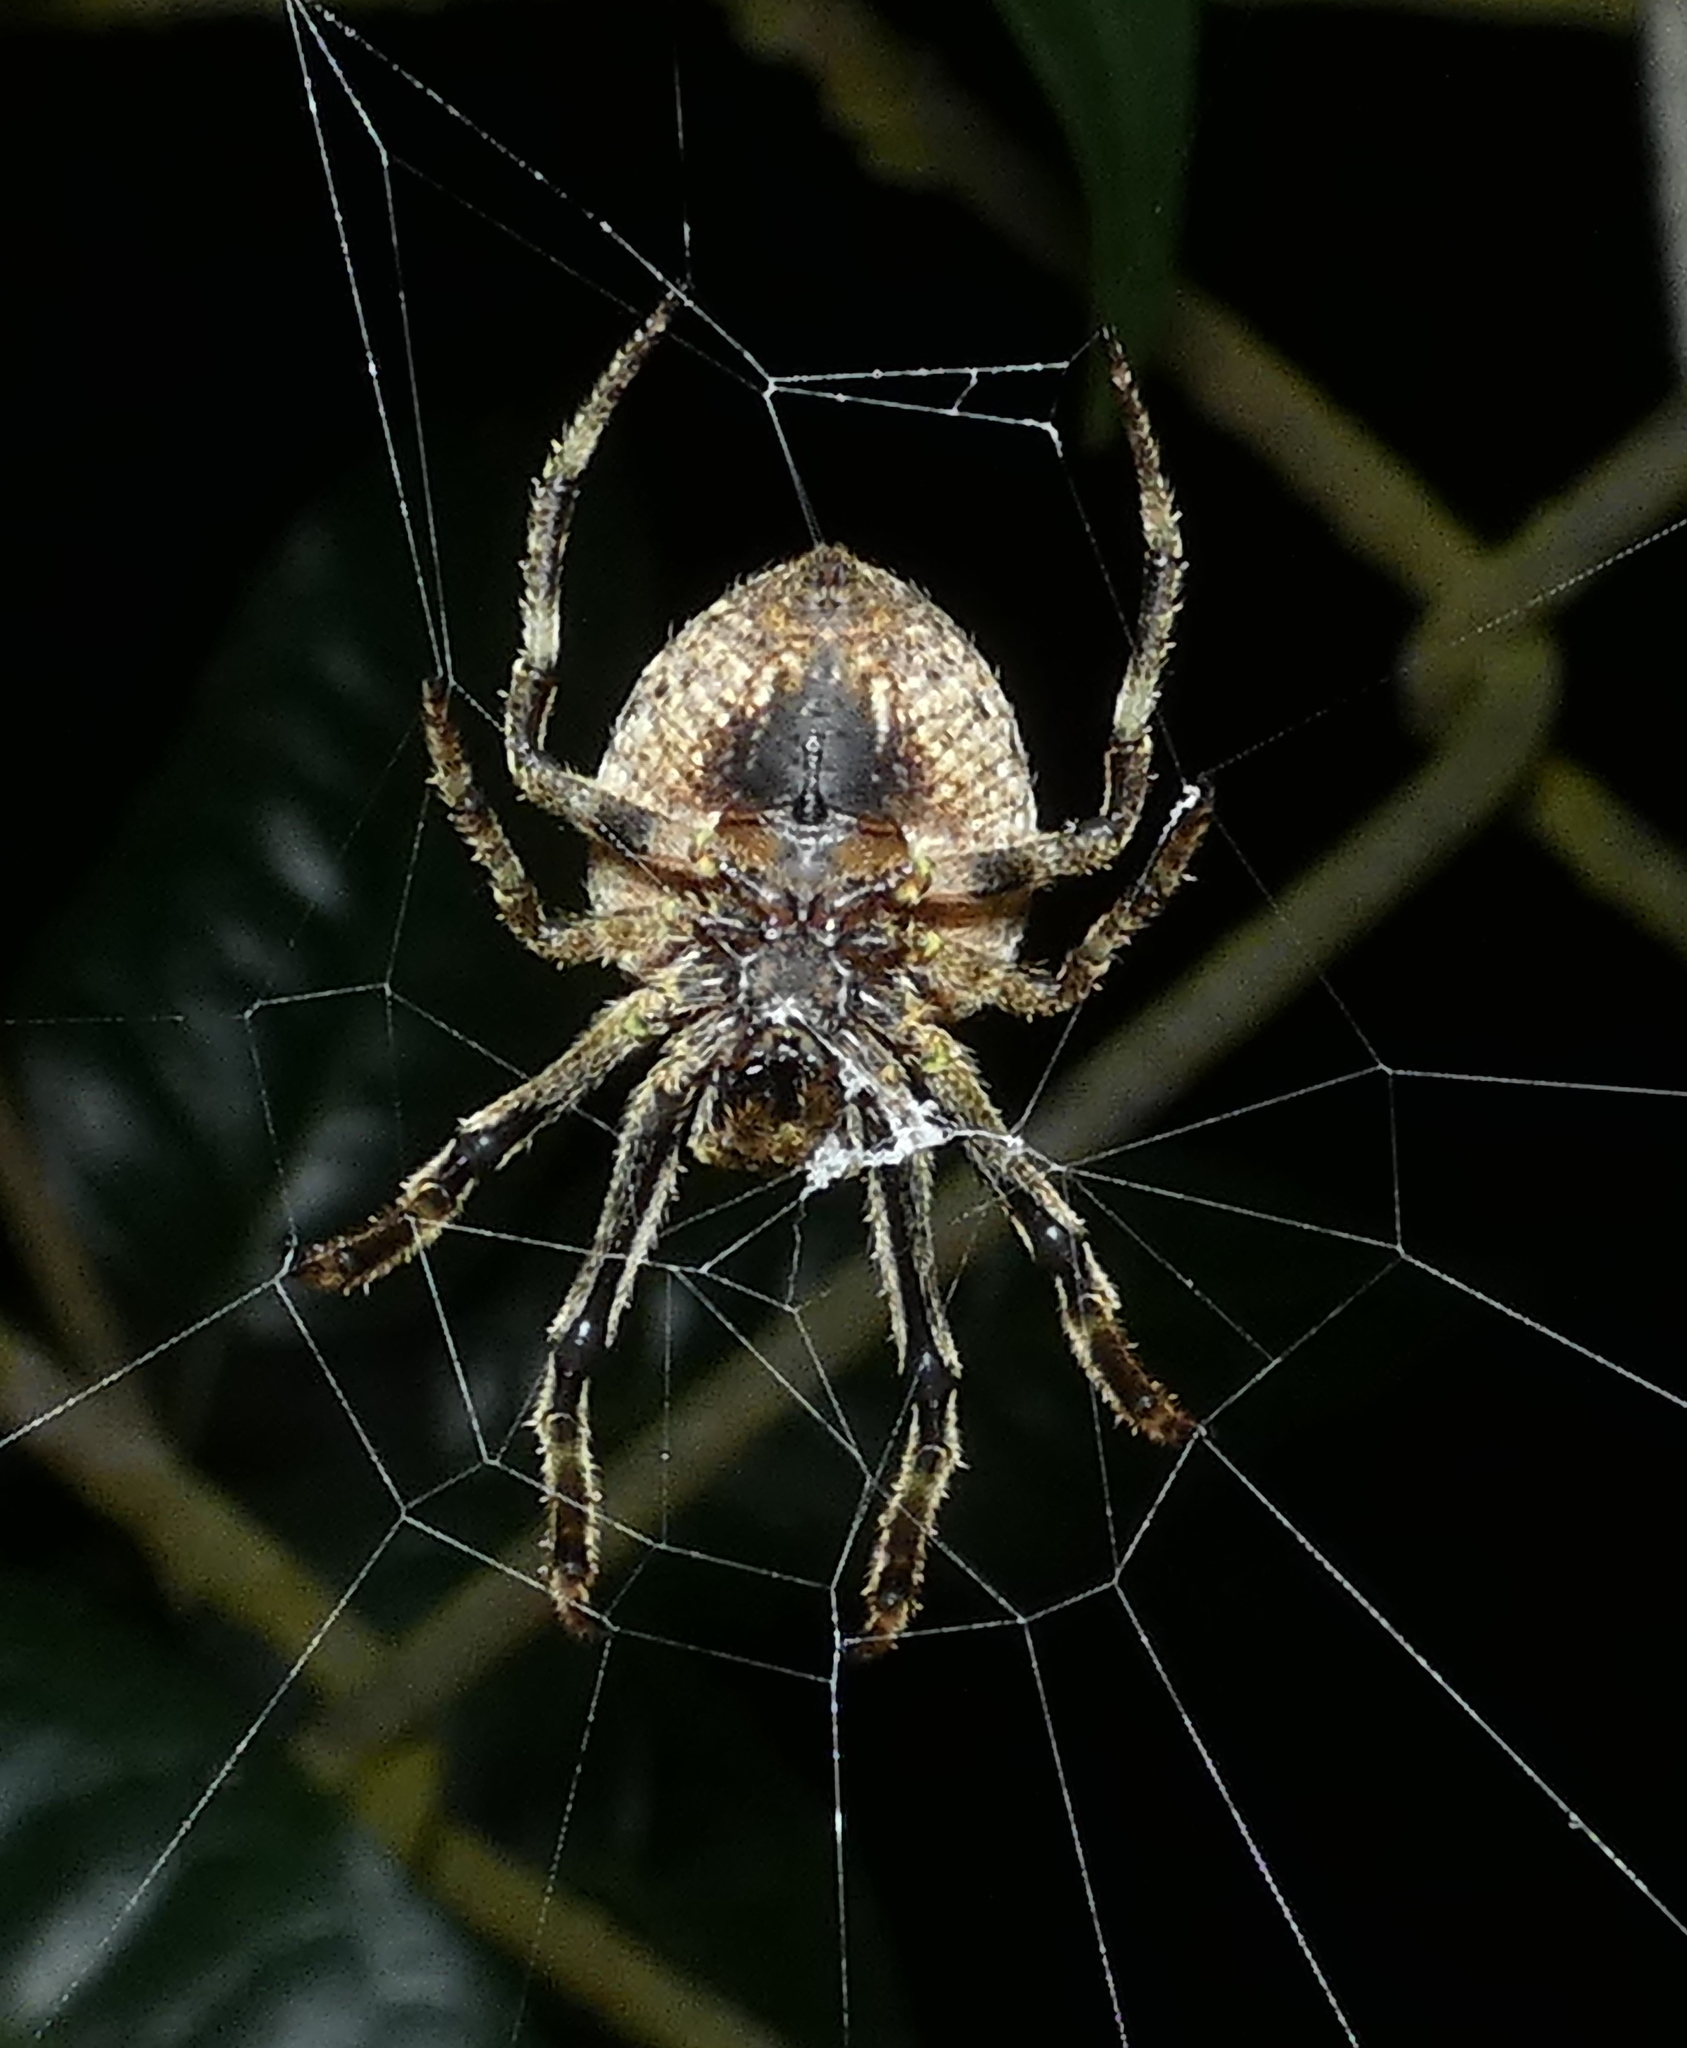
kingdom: Animalia
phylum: Arthropoda
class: Arachnida
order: Araneae
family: Araneidae
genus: Eriophora
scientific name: Eriophora edax
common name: Orb weavers
